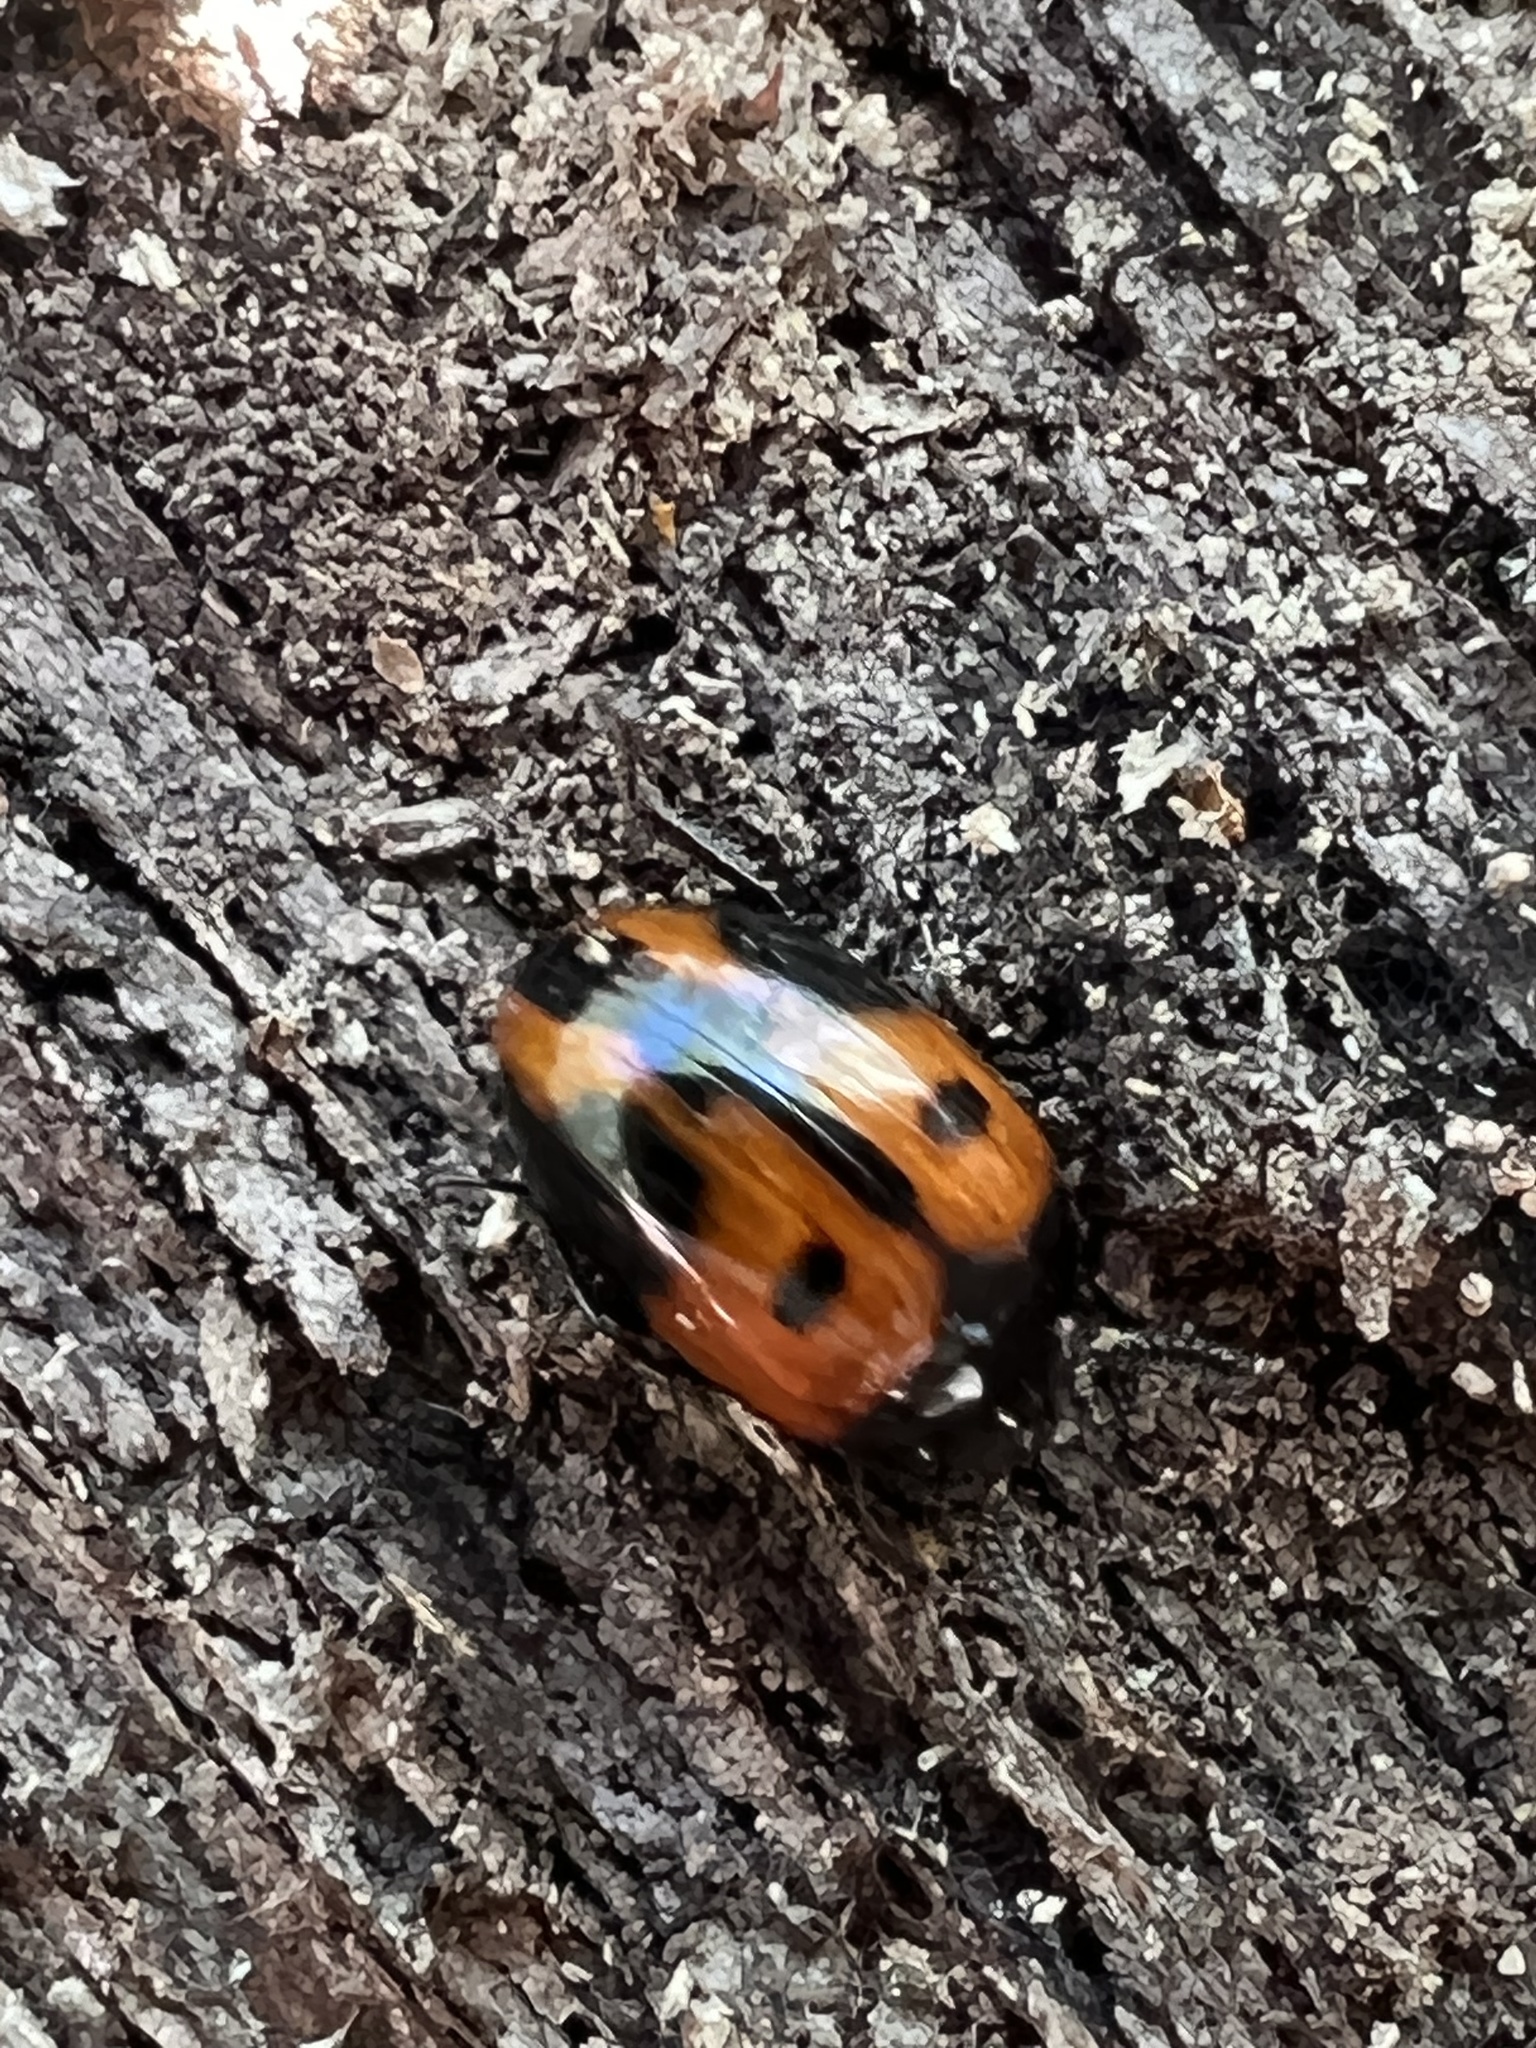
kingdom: Animalia
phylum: Arthropoda
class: Insecta
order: Coleoptera
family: Tenebrionidae
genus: Diaperis
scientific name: Diaperis maculata
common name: Darkling beetle
